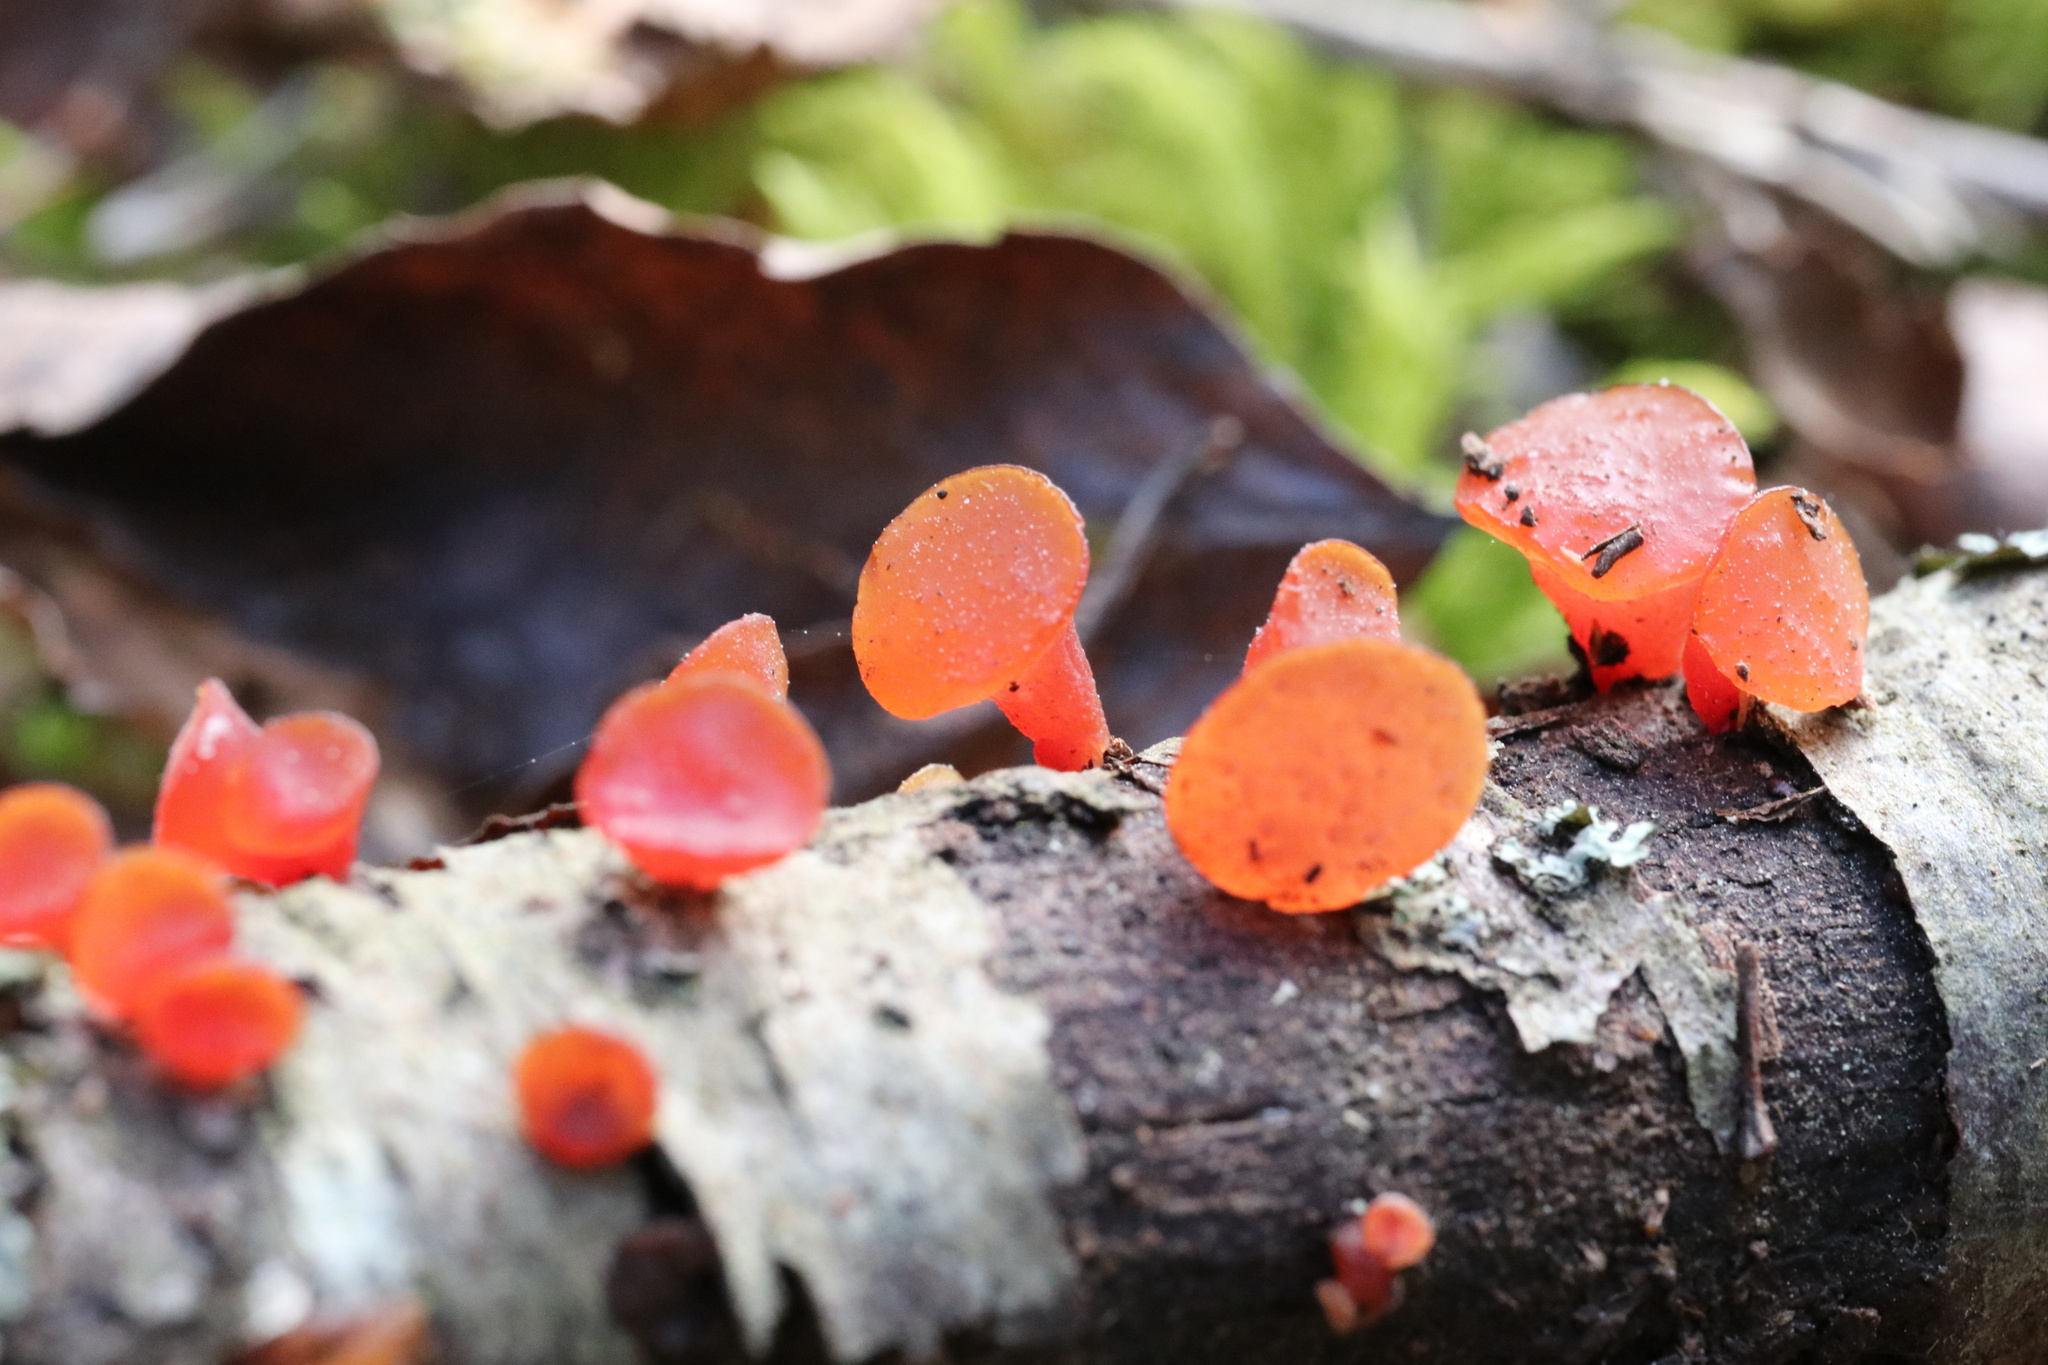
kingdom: Fungi
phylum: Basidiomycota
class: Dacrymycetes
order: Dacrymycetales
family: Dacrymycetaceae
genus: Guepiniopsis
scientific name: Guepiniopsis alpina
